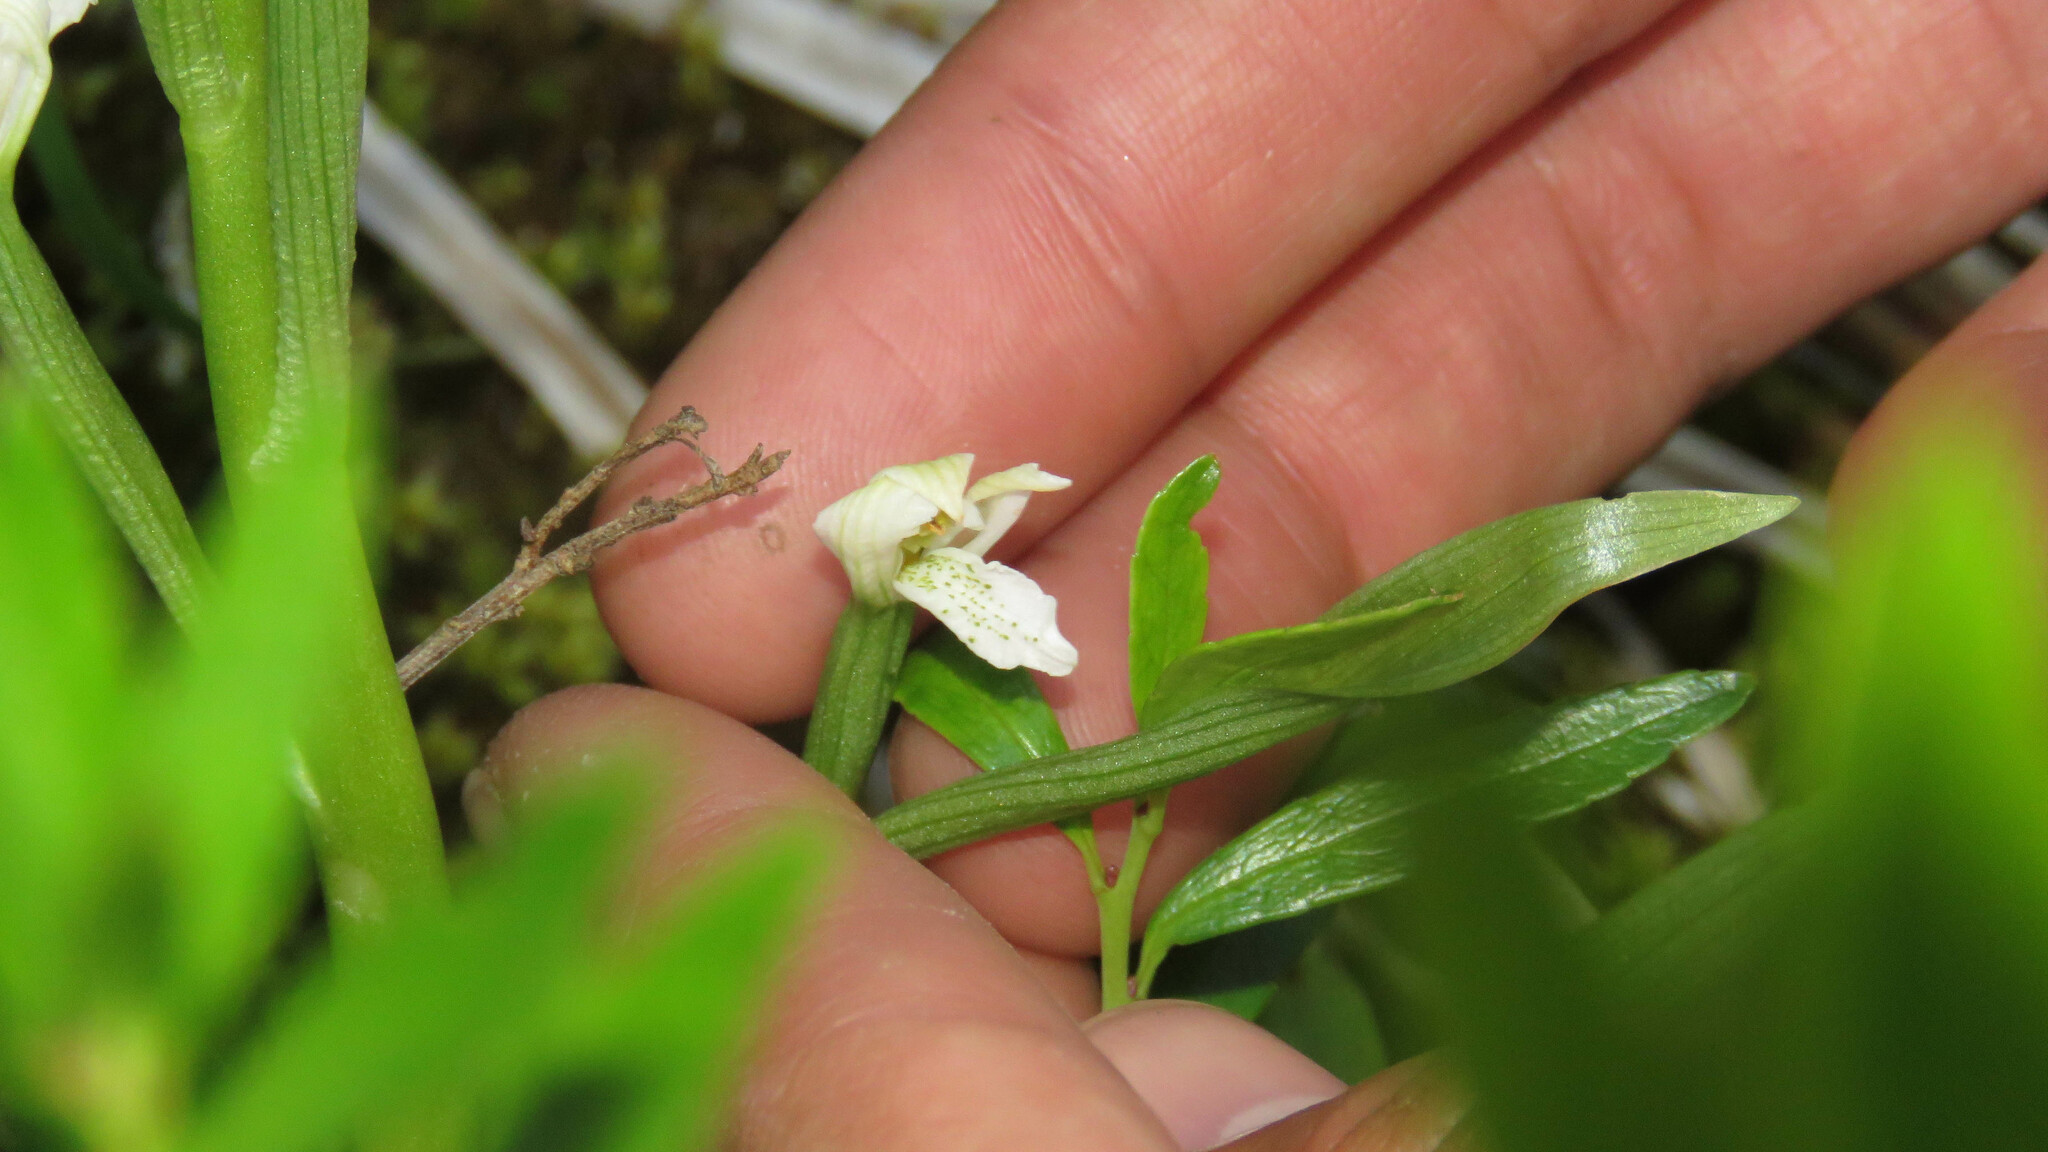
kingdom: Plantae
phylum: Tracheophyta
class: Liliopsida
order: Asparagales
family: Orchidaceae
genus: Gavilea
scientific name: Gavilea chica
